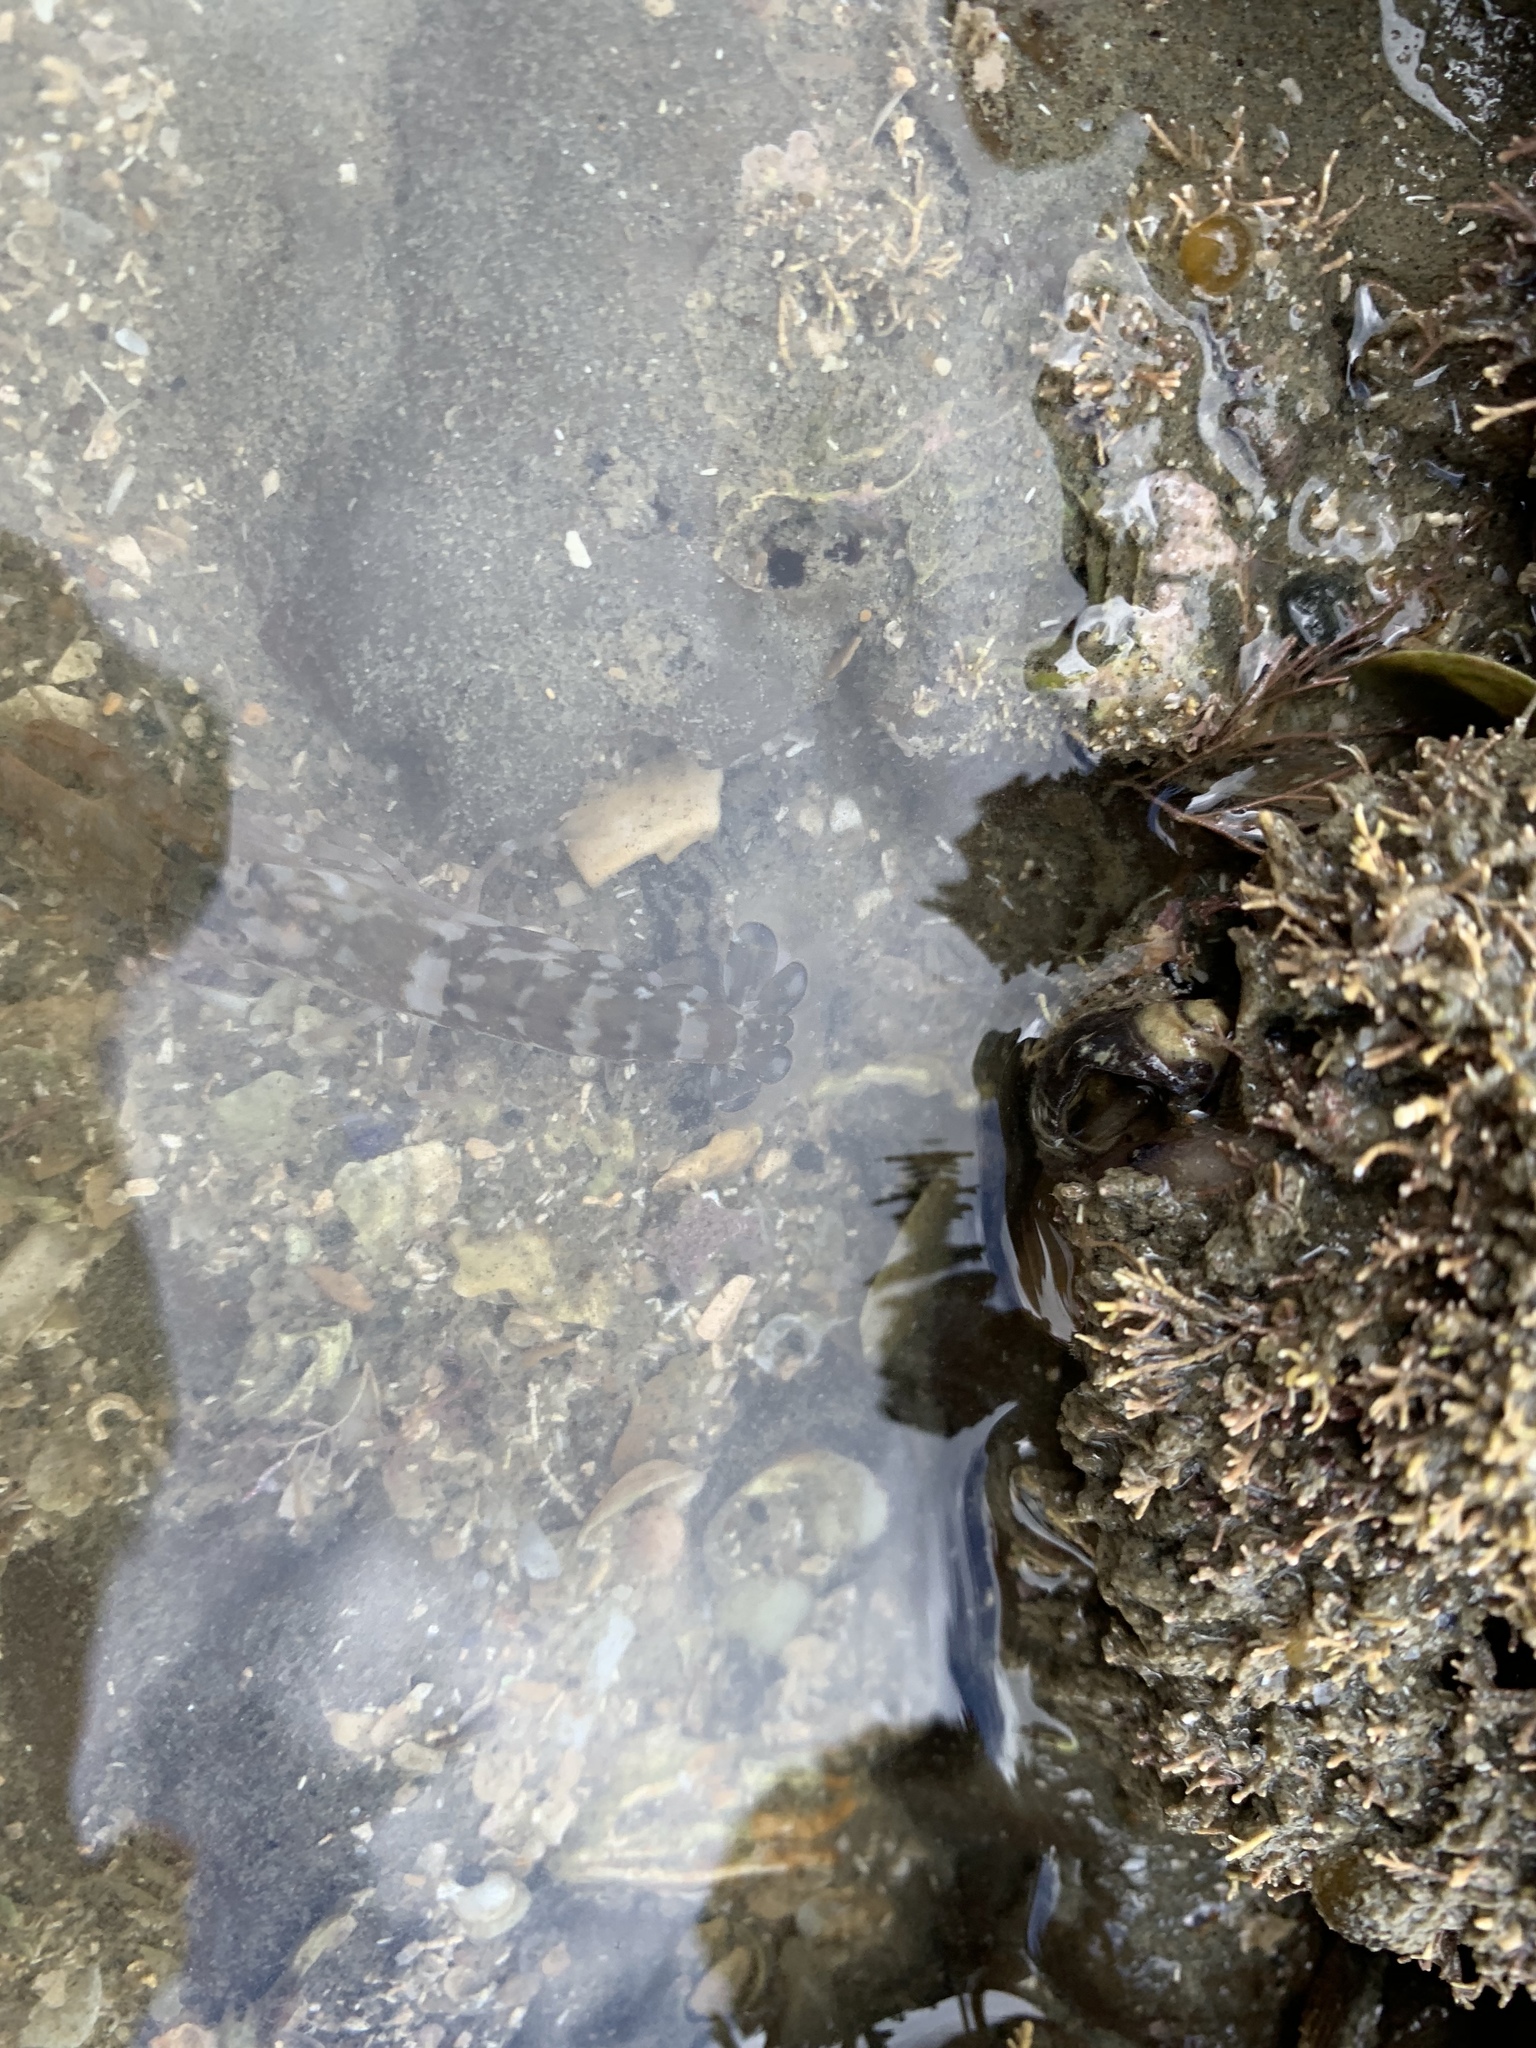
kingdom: Animalia
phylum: Arthropoda
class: Malacostraca
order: Decapoda
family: Alpheidae
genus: Alpheus
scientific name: Alpheus novaezealandiae
